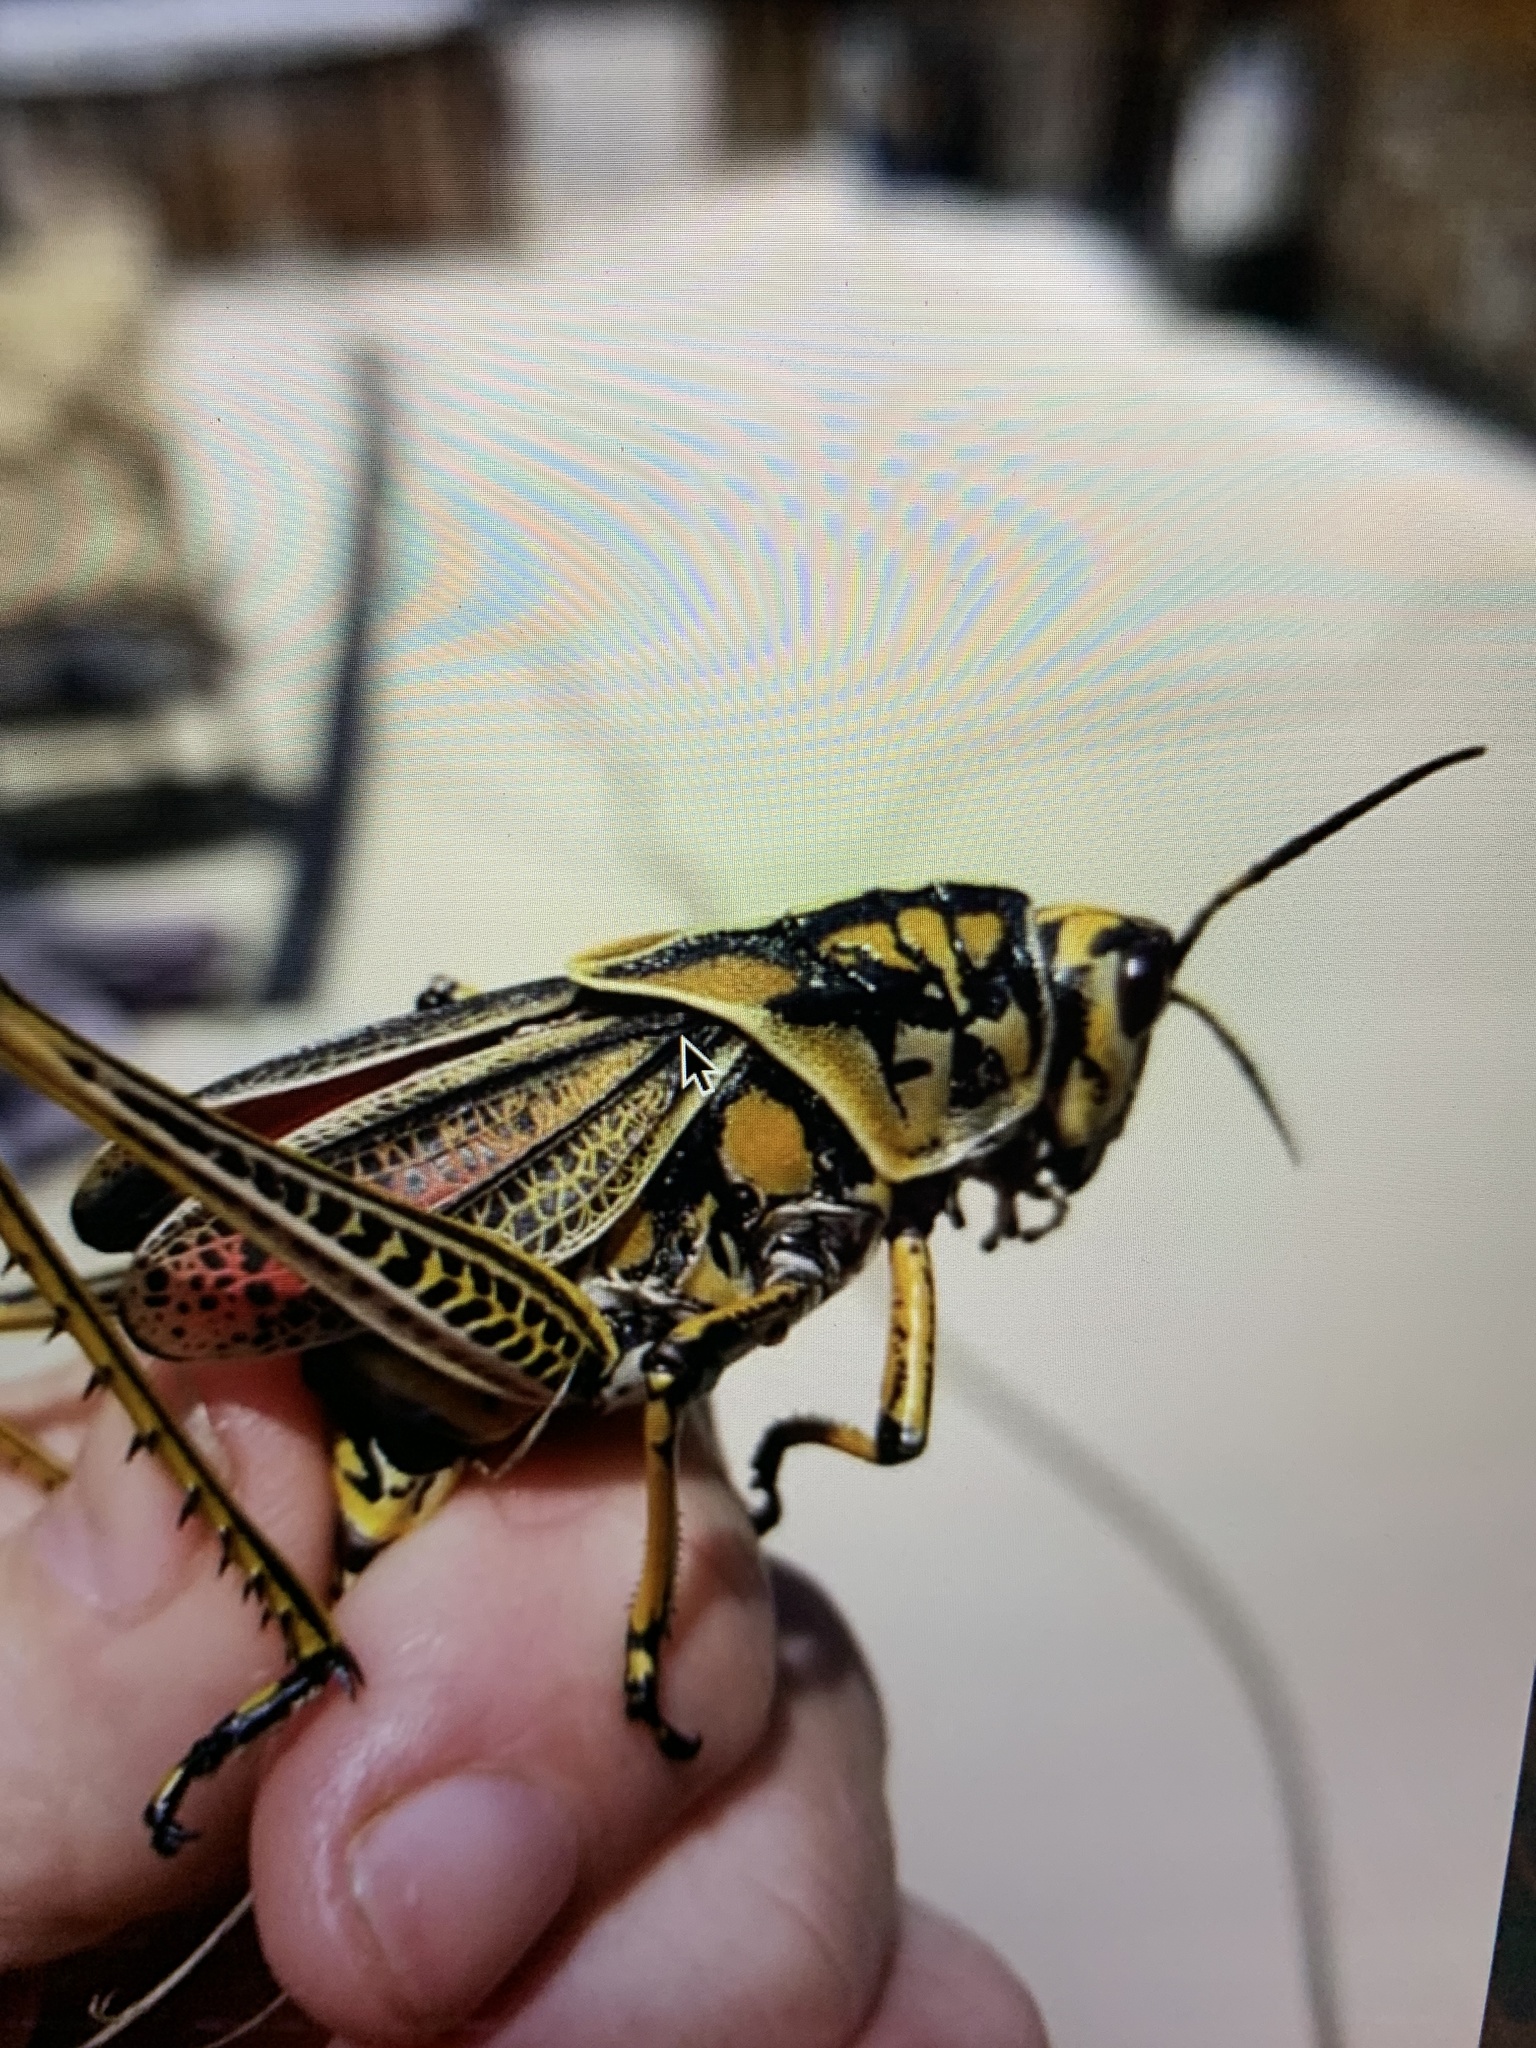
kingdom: Animalia
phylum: Arthropoda
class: Insecta
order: Orthoptera
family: Romaleidae
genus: Romalea
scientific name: Romalea microptera
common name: Eastern lubber grasshopper
